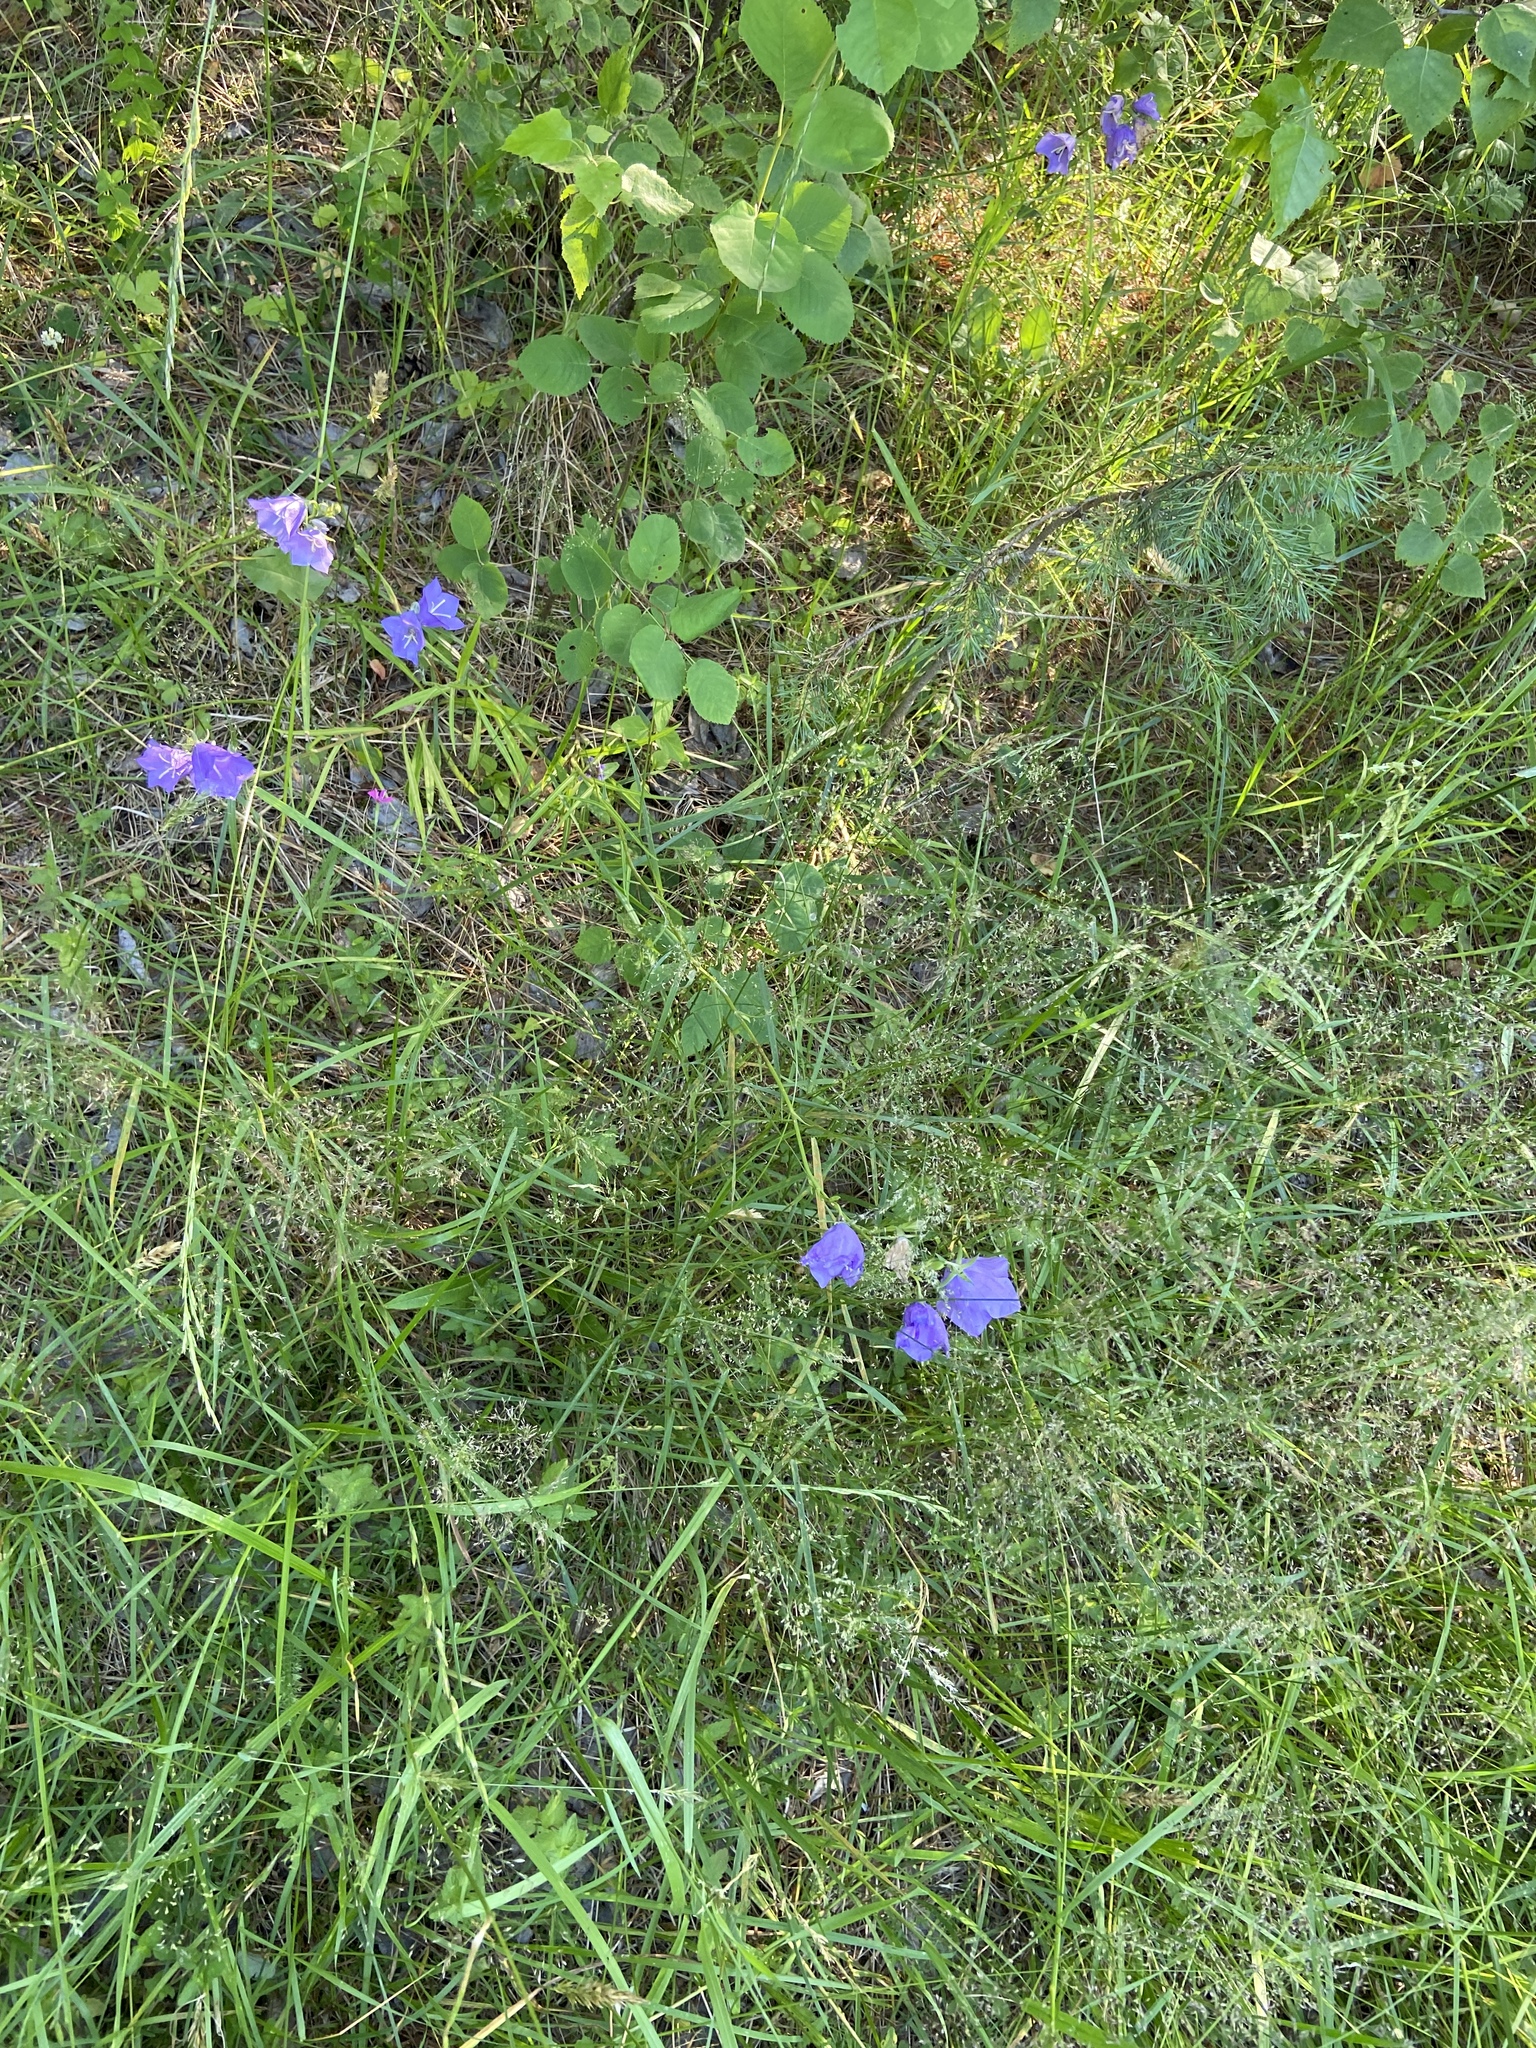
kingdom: Plantae
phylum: Tracheophyta
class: Magnoliopsida
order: Asterales
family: Campanulaceae
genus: Campanula
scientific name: Campanula persicifolia
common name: Peach-leaved bellflower
